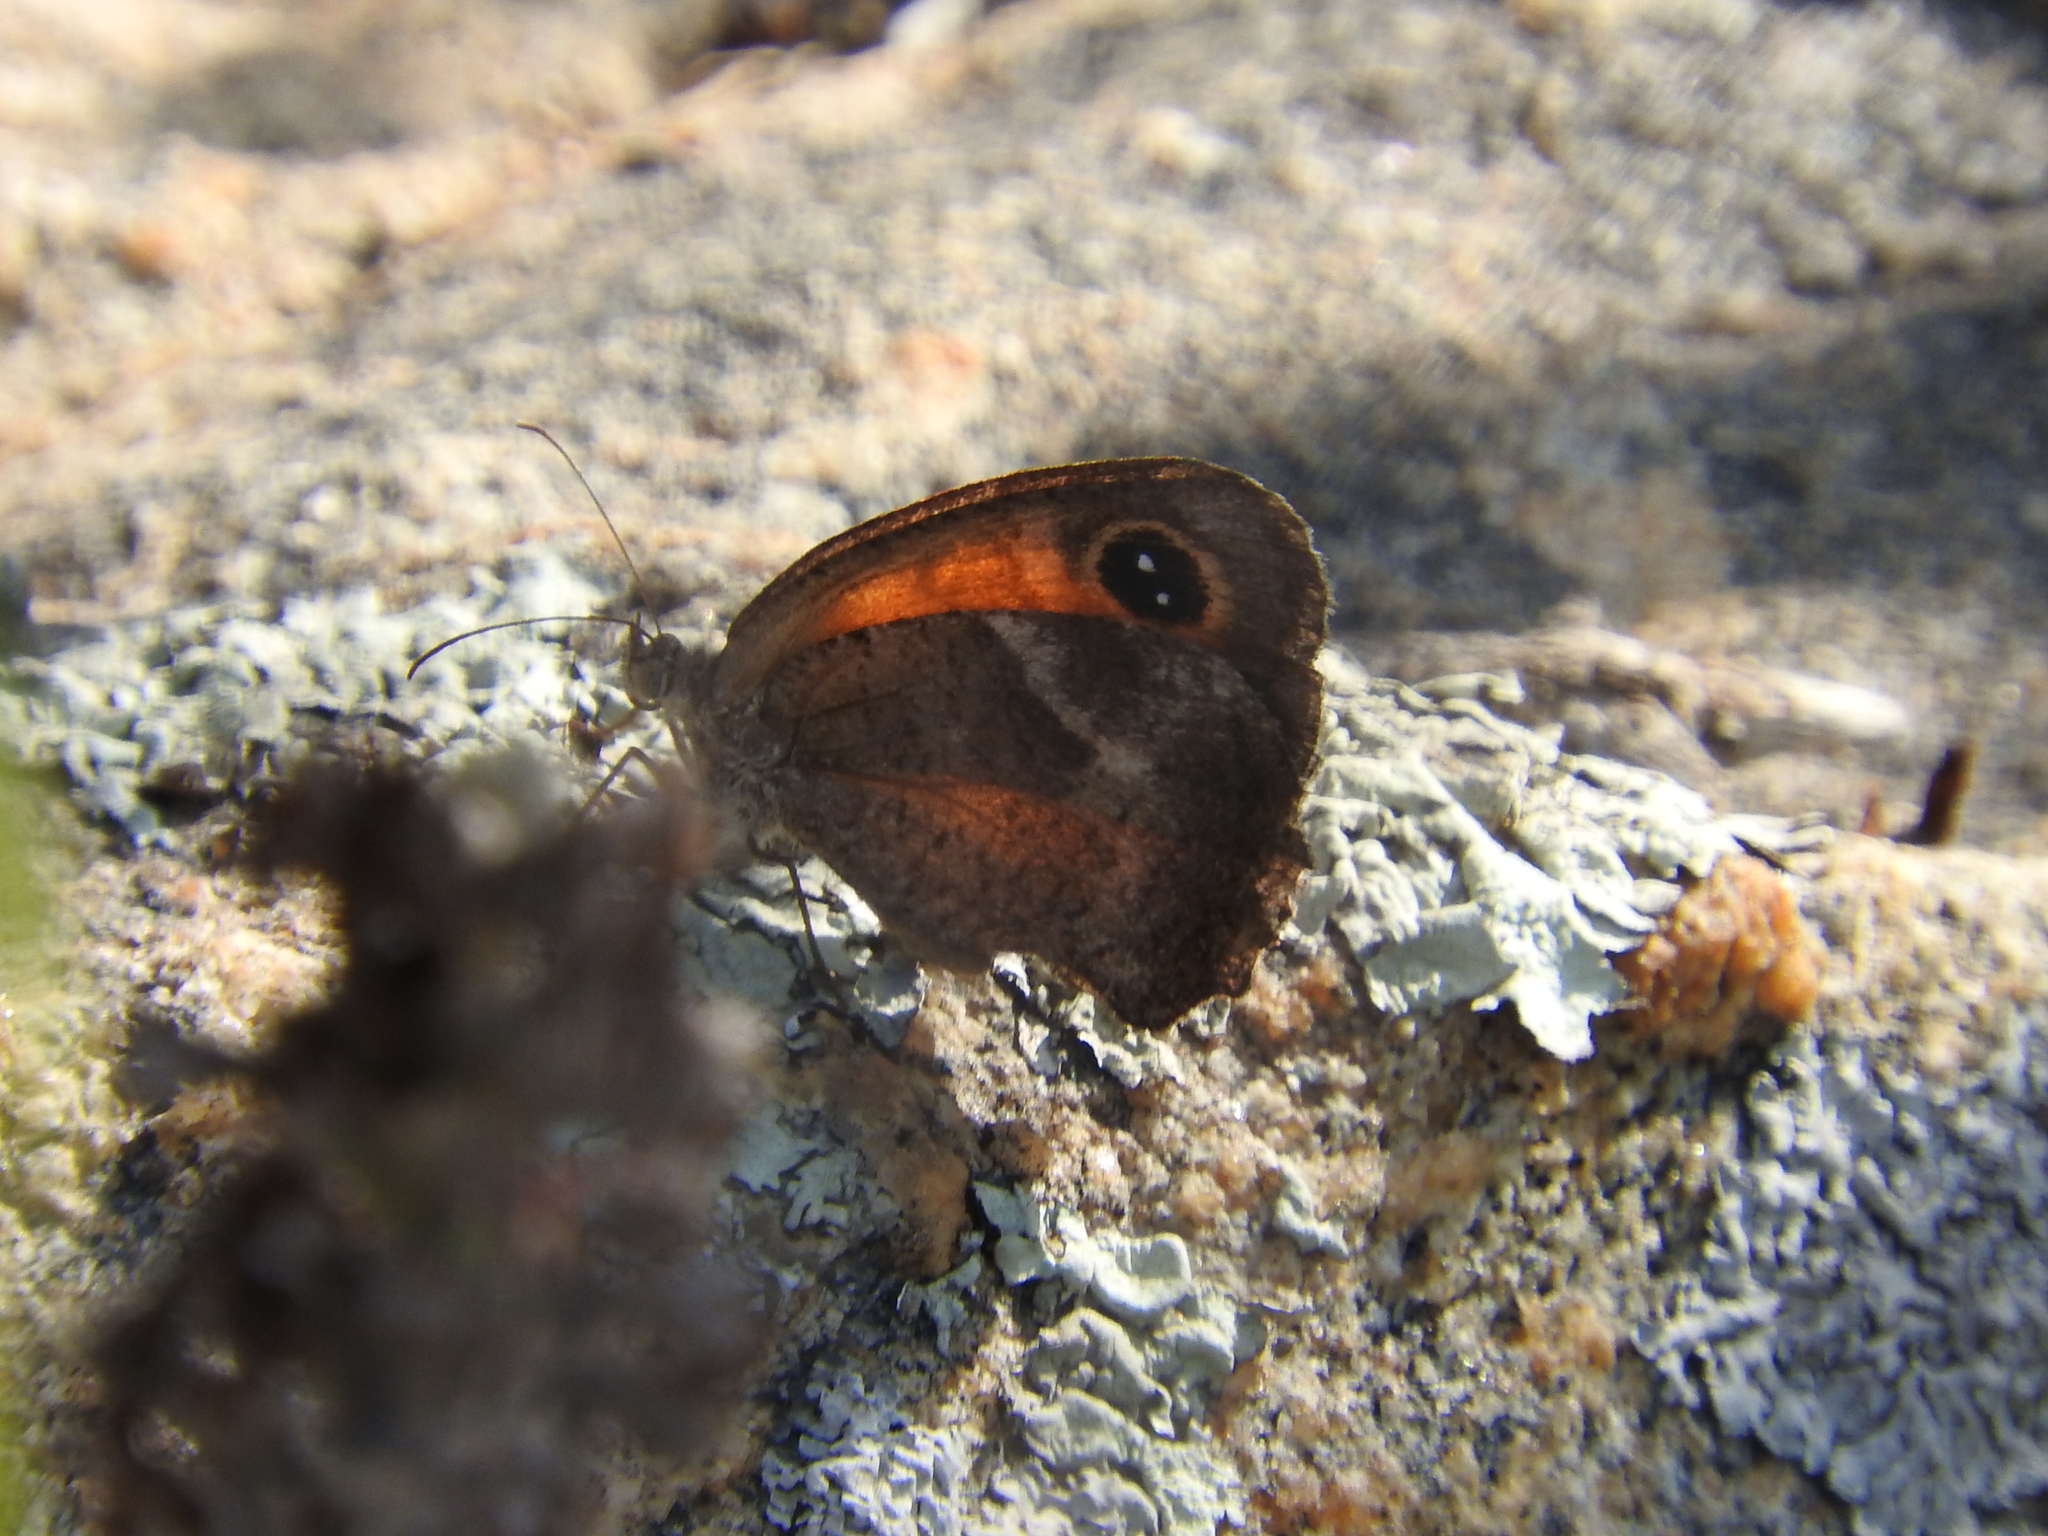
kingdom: Animalia
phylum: Arthropoda
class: Insecta
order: Lepidoptera
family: Nymphalidae
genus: Pyronia
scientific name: Pyronia cecilia
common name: Southern gatekeeper
